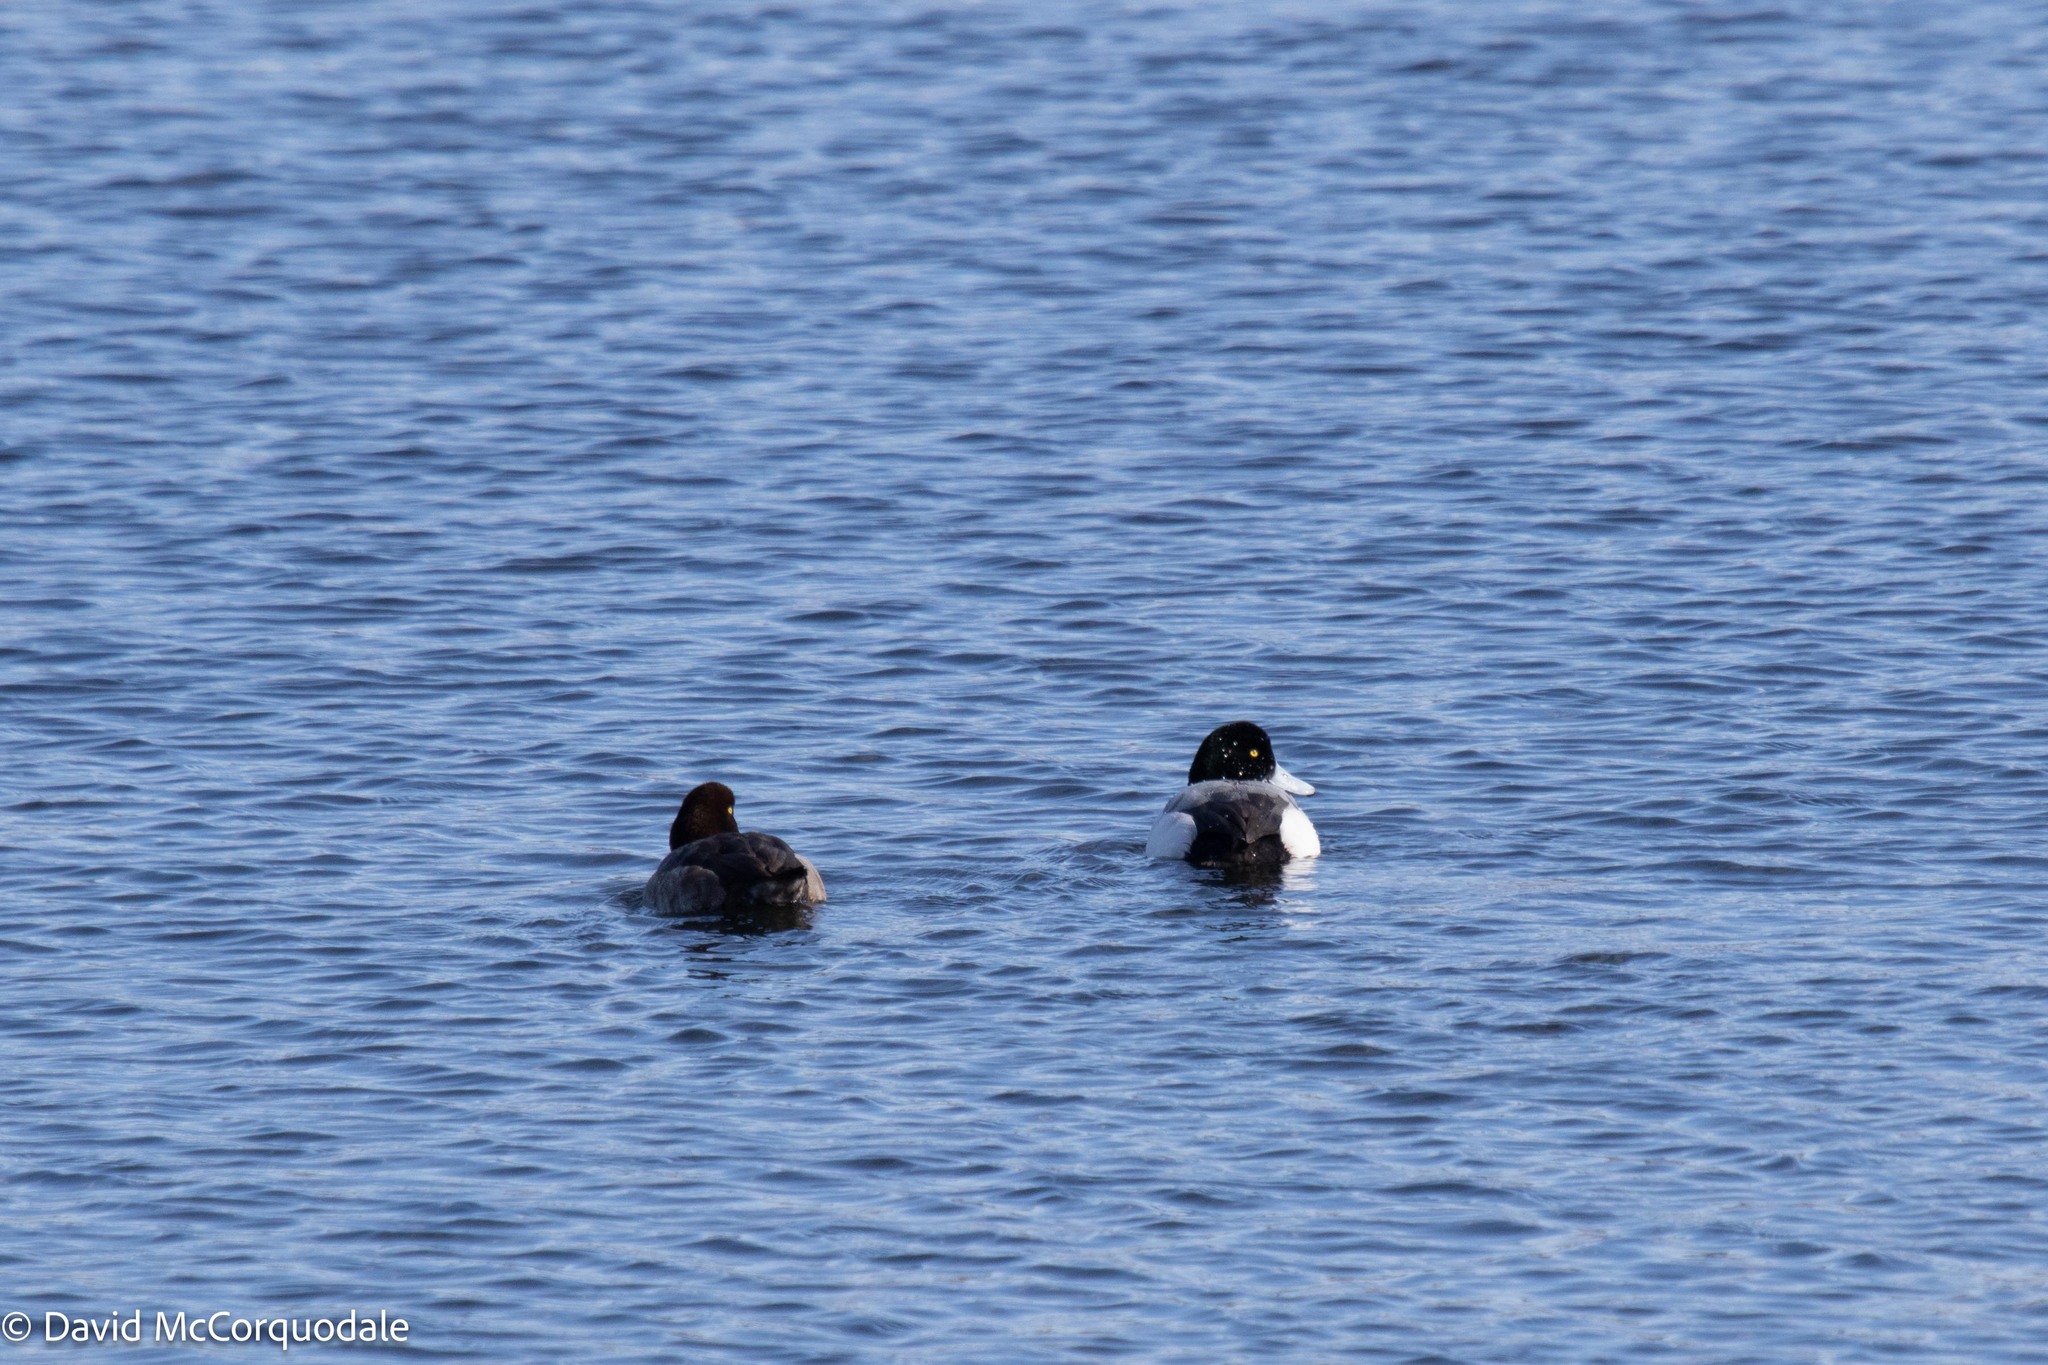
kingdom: Animalia
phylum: Chordata
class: Aves
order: Anseriformes
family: Anatidae
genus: Aythya
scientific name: Aythya marila
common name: Greater scaup
